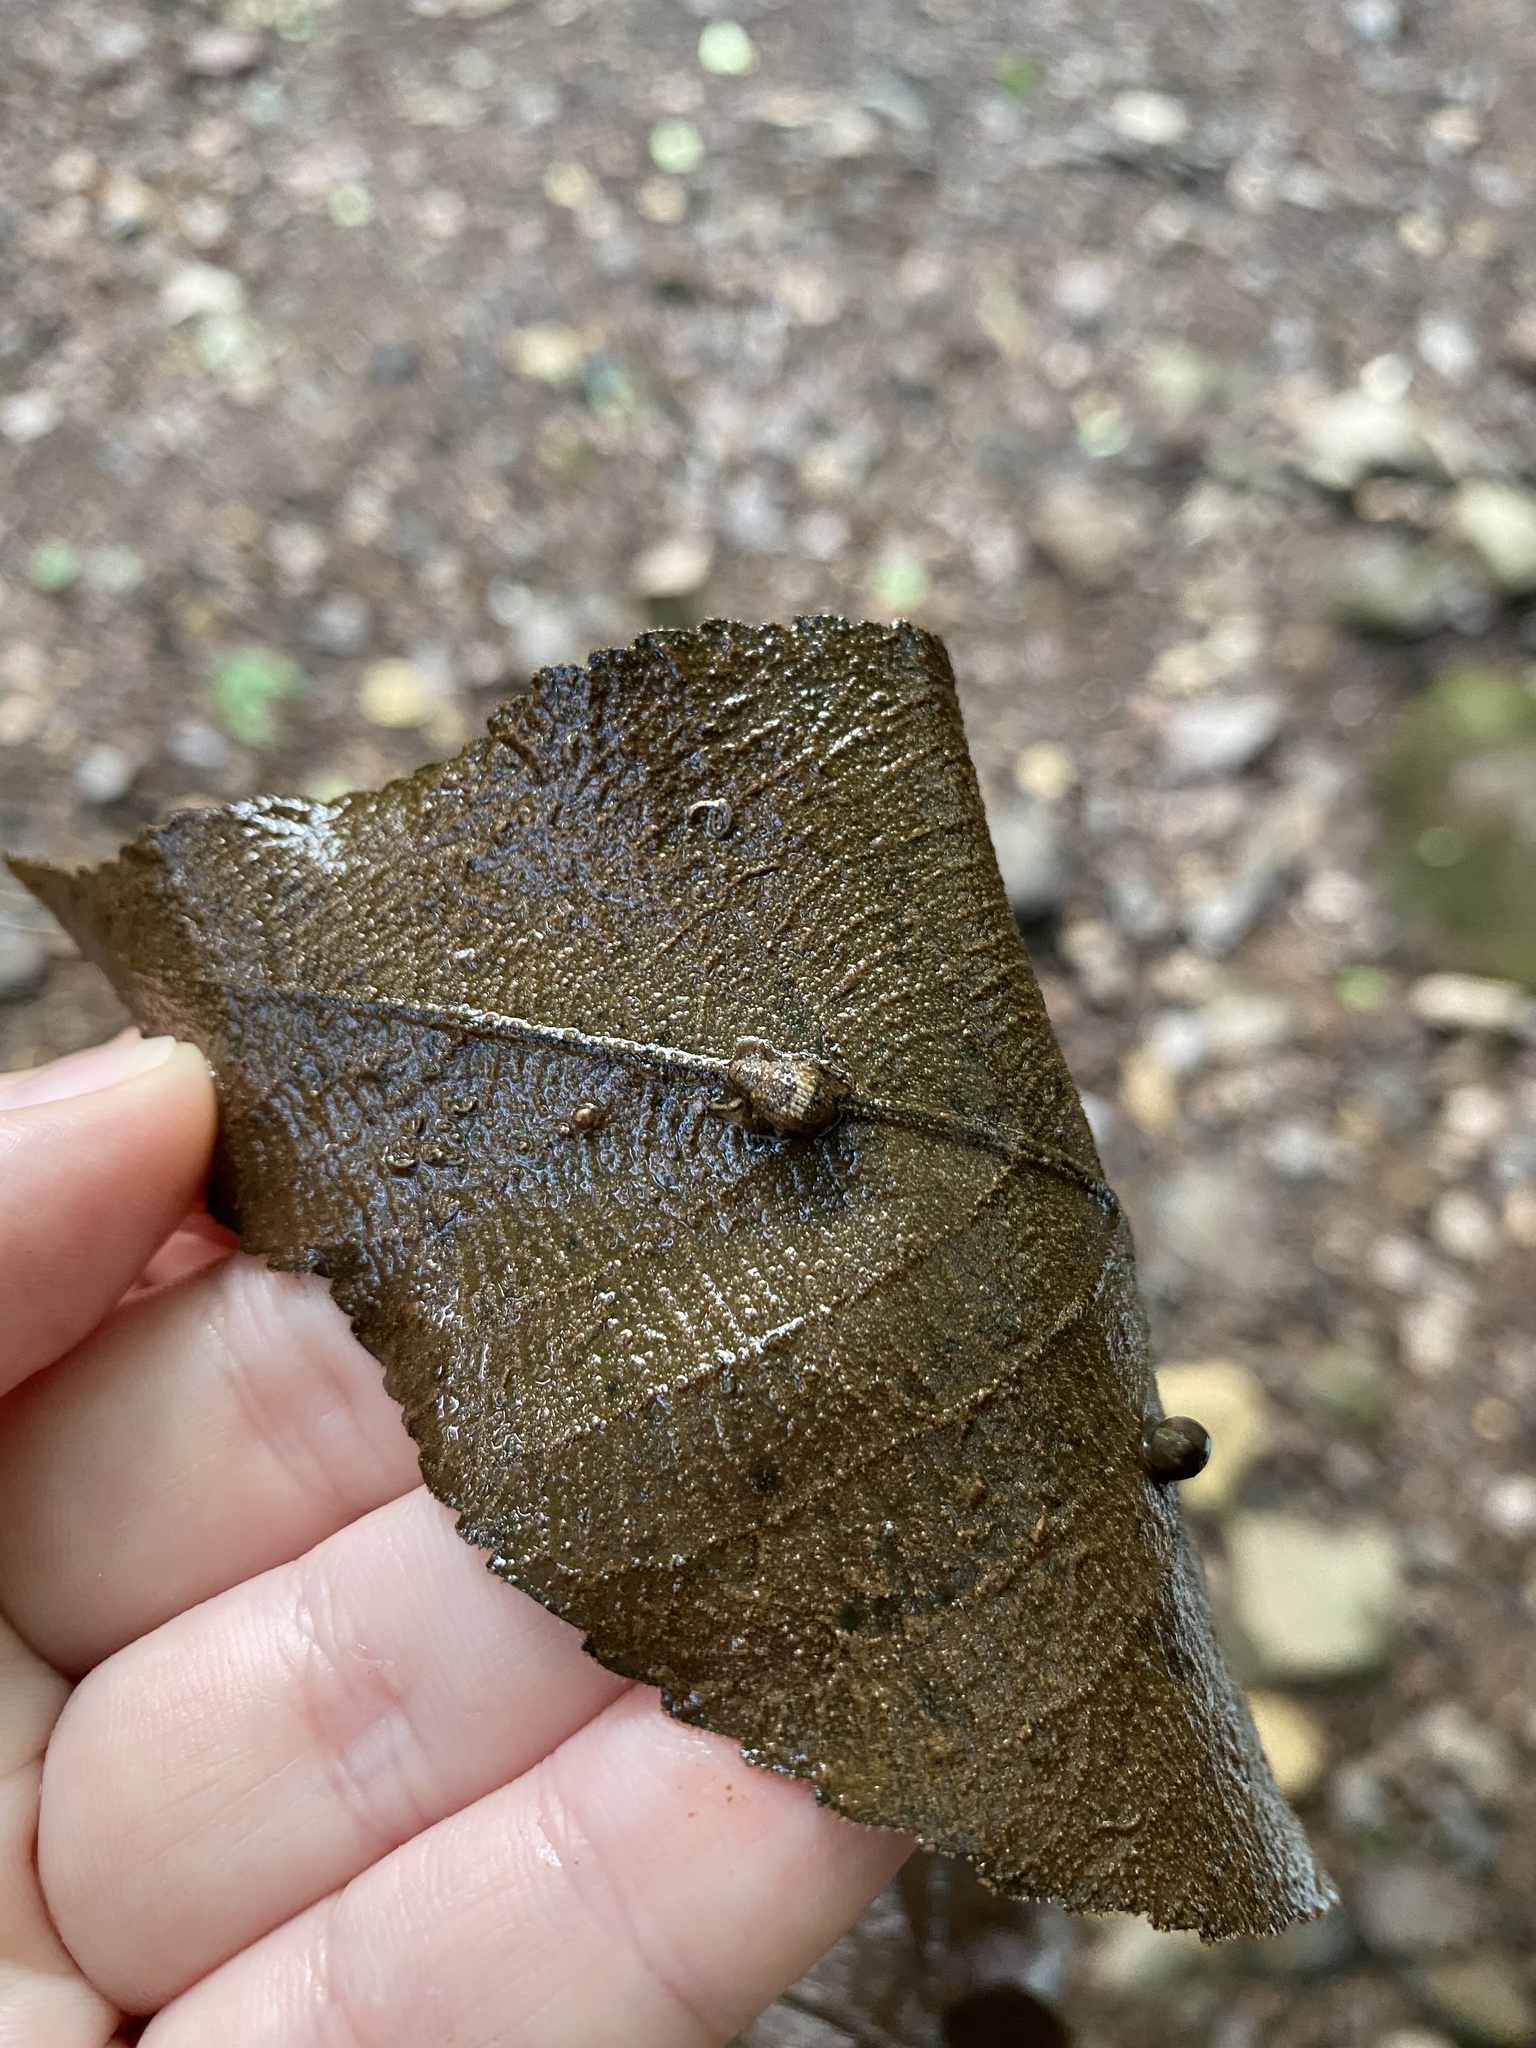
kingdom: Animalia
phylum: Arthropoda
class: Insecta
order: Coleoptera
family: Curculionidae
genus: Pseudocneorhinus
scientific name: Pseudocneorhinus bifasciatus
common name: Two-banded japanese weevil
